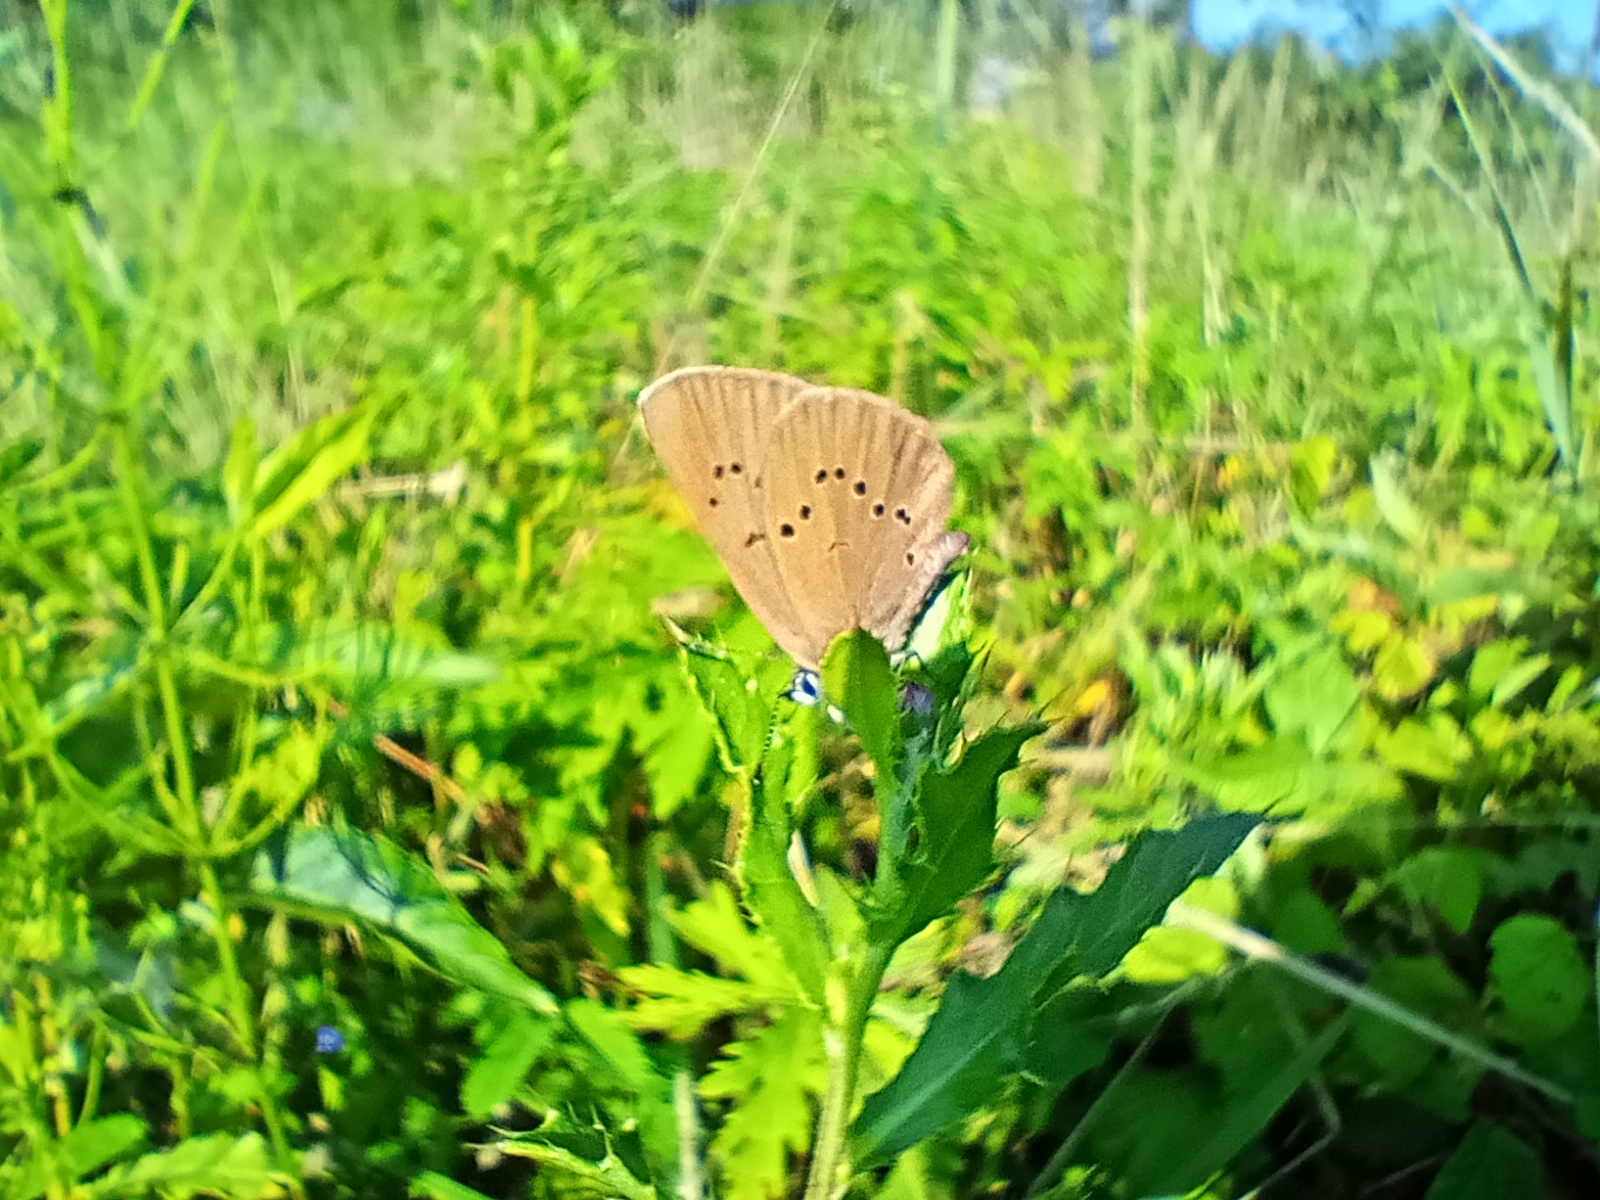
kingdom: Animalia
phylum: Arthropoda
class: Insecta
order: Lepidoptera
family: Lycaenidae
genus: Maculinea
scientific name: Maculinea nausithous
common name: Dusky large blue
